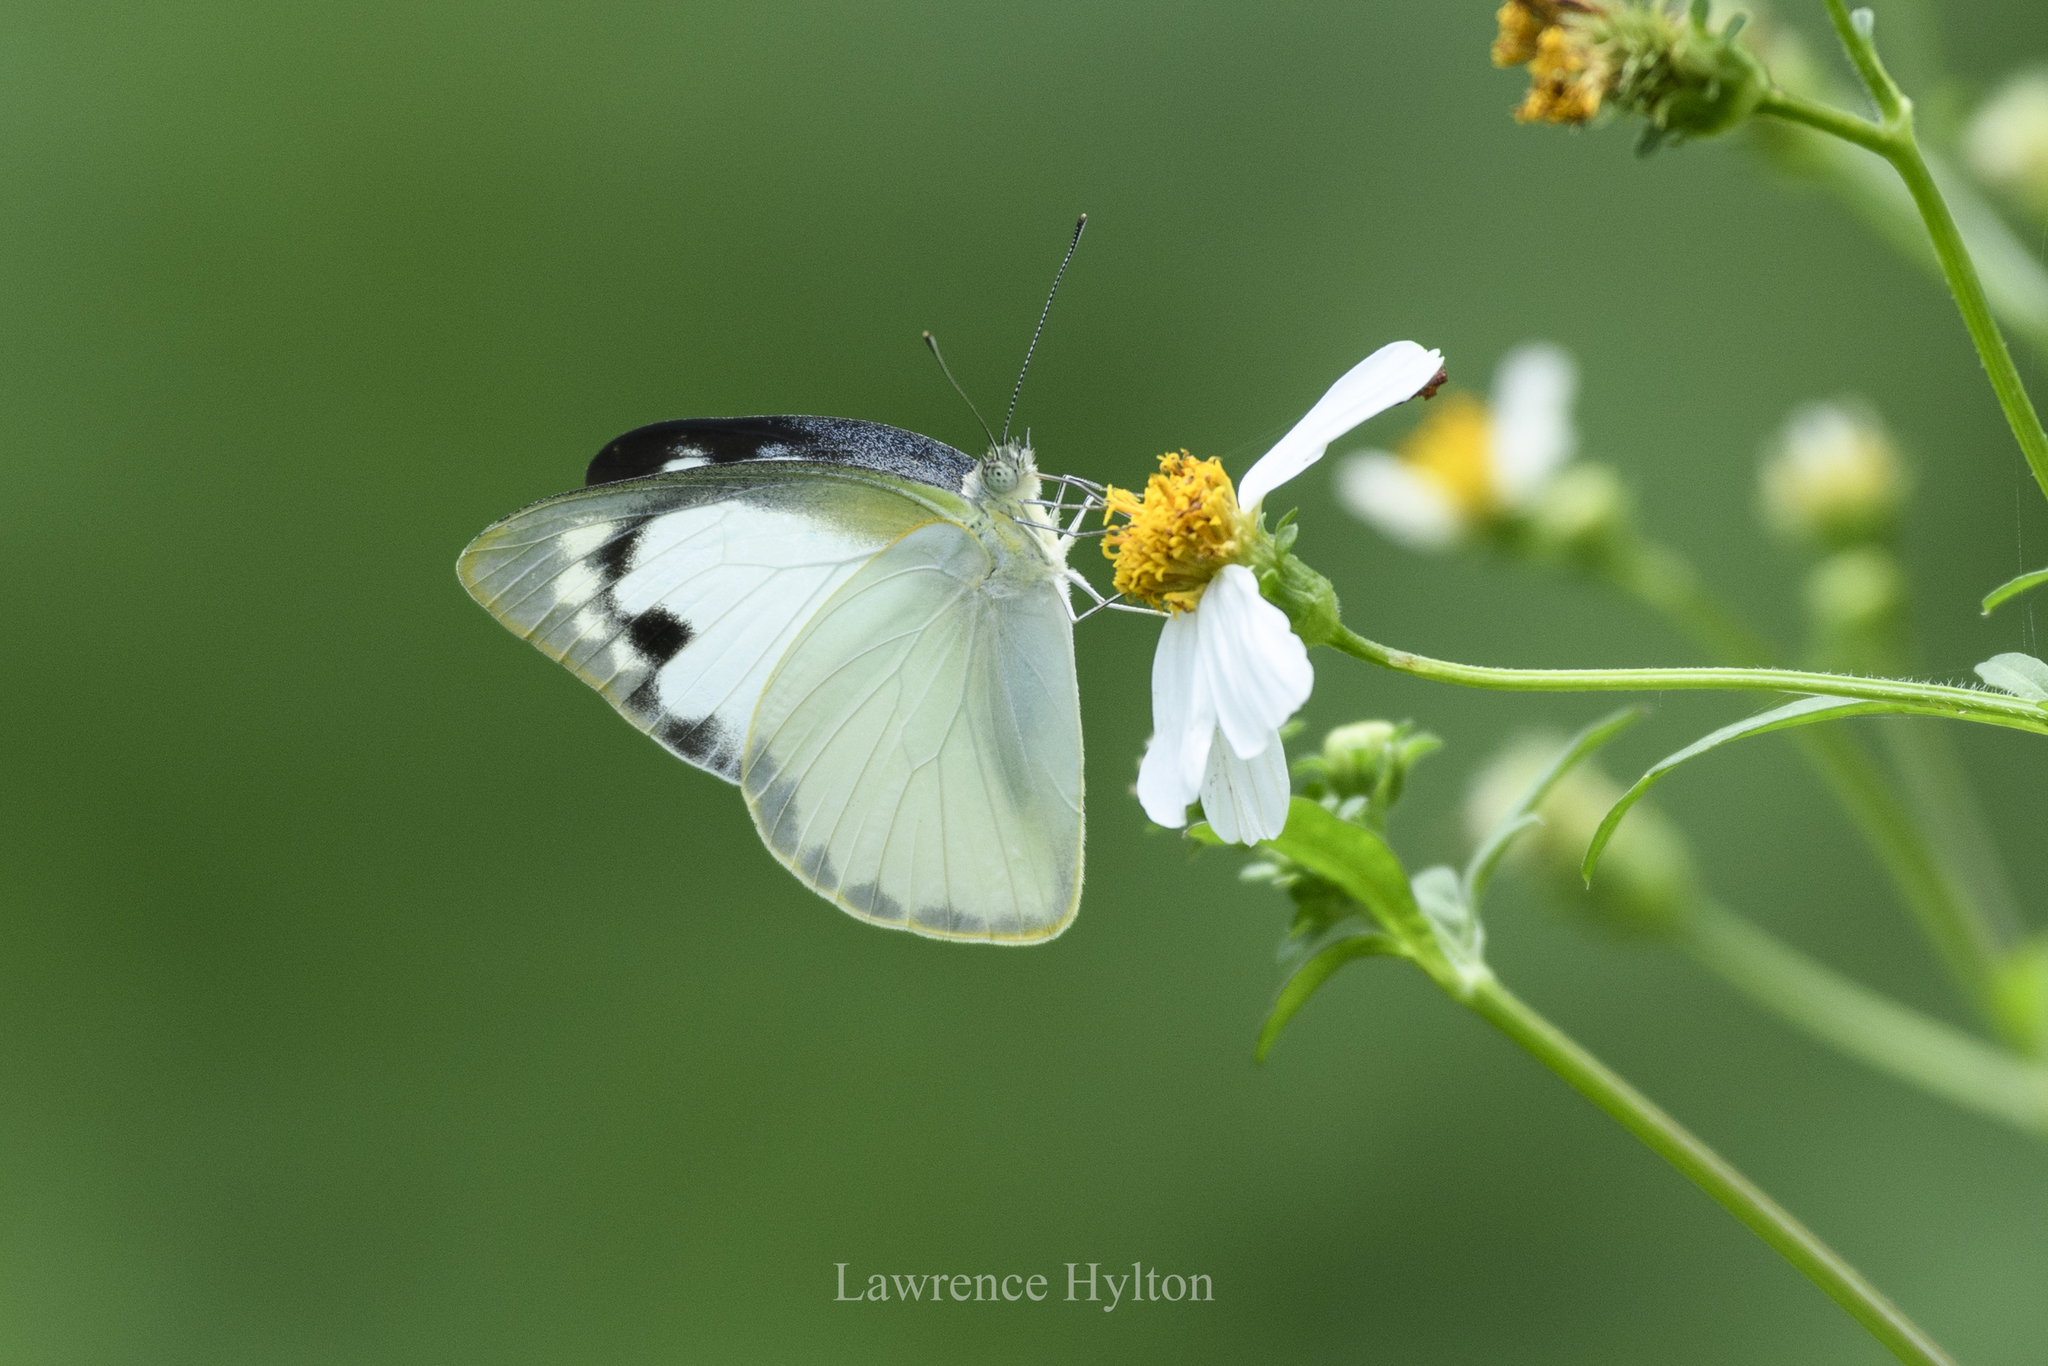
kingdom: Animalia
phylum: Arthropoda
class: Insecta
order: Lepidoptera
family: Pieridae
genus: Appias
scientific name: Appias albina
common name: Common albatross
